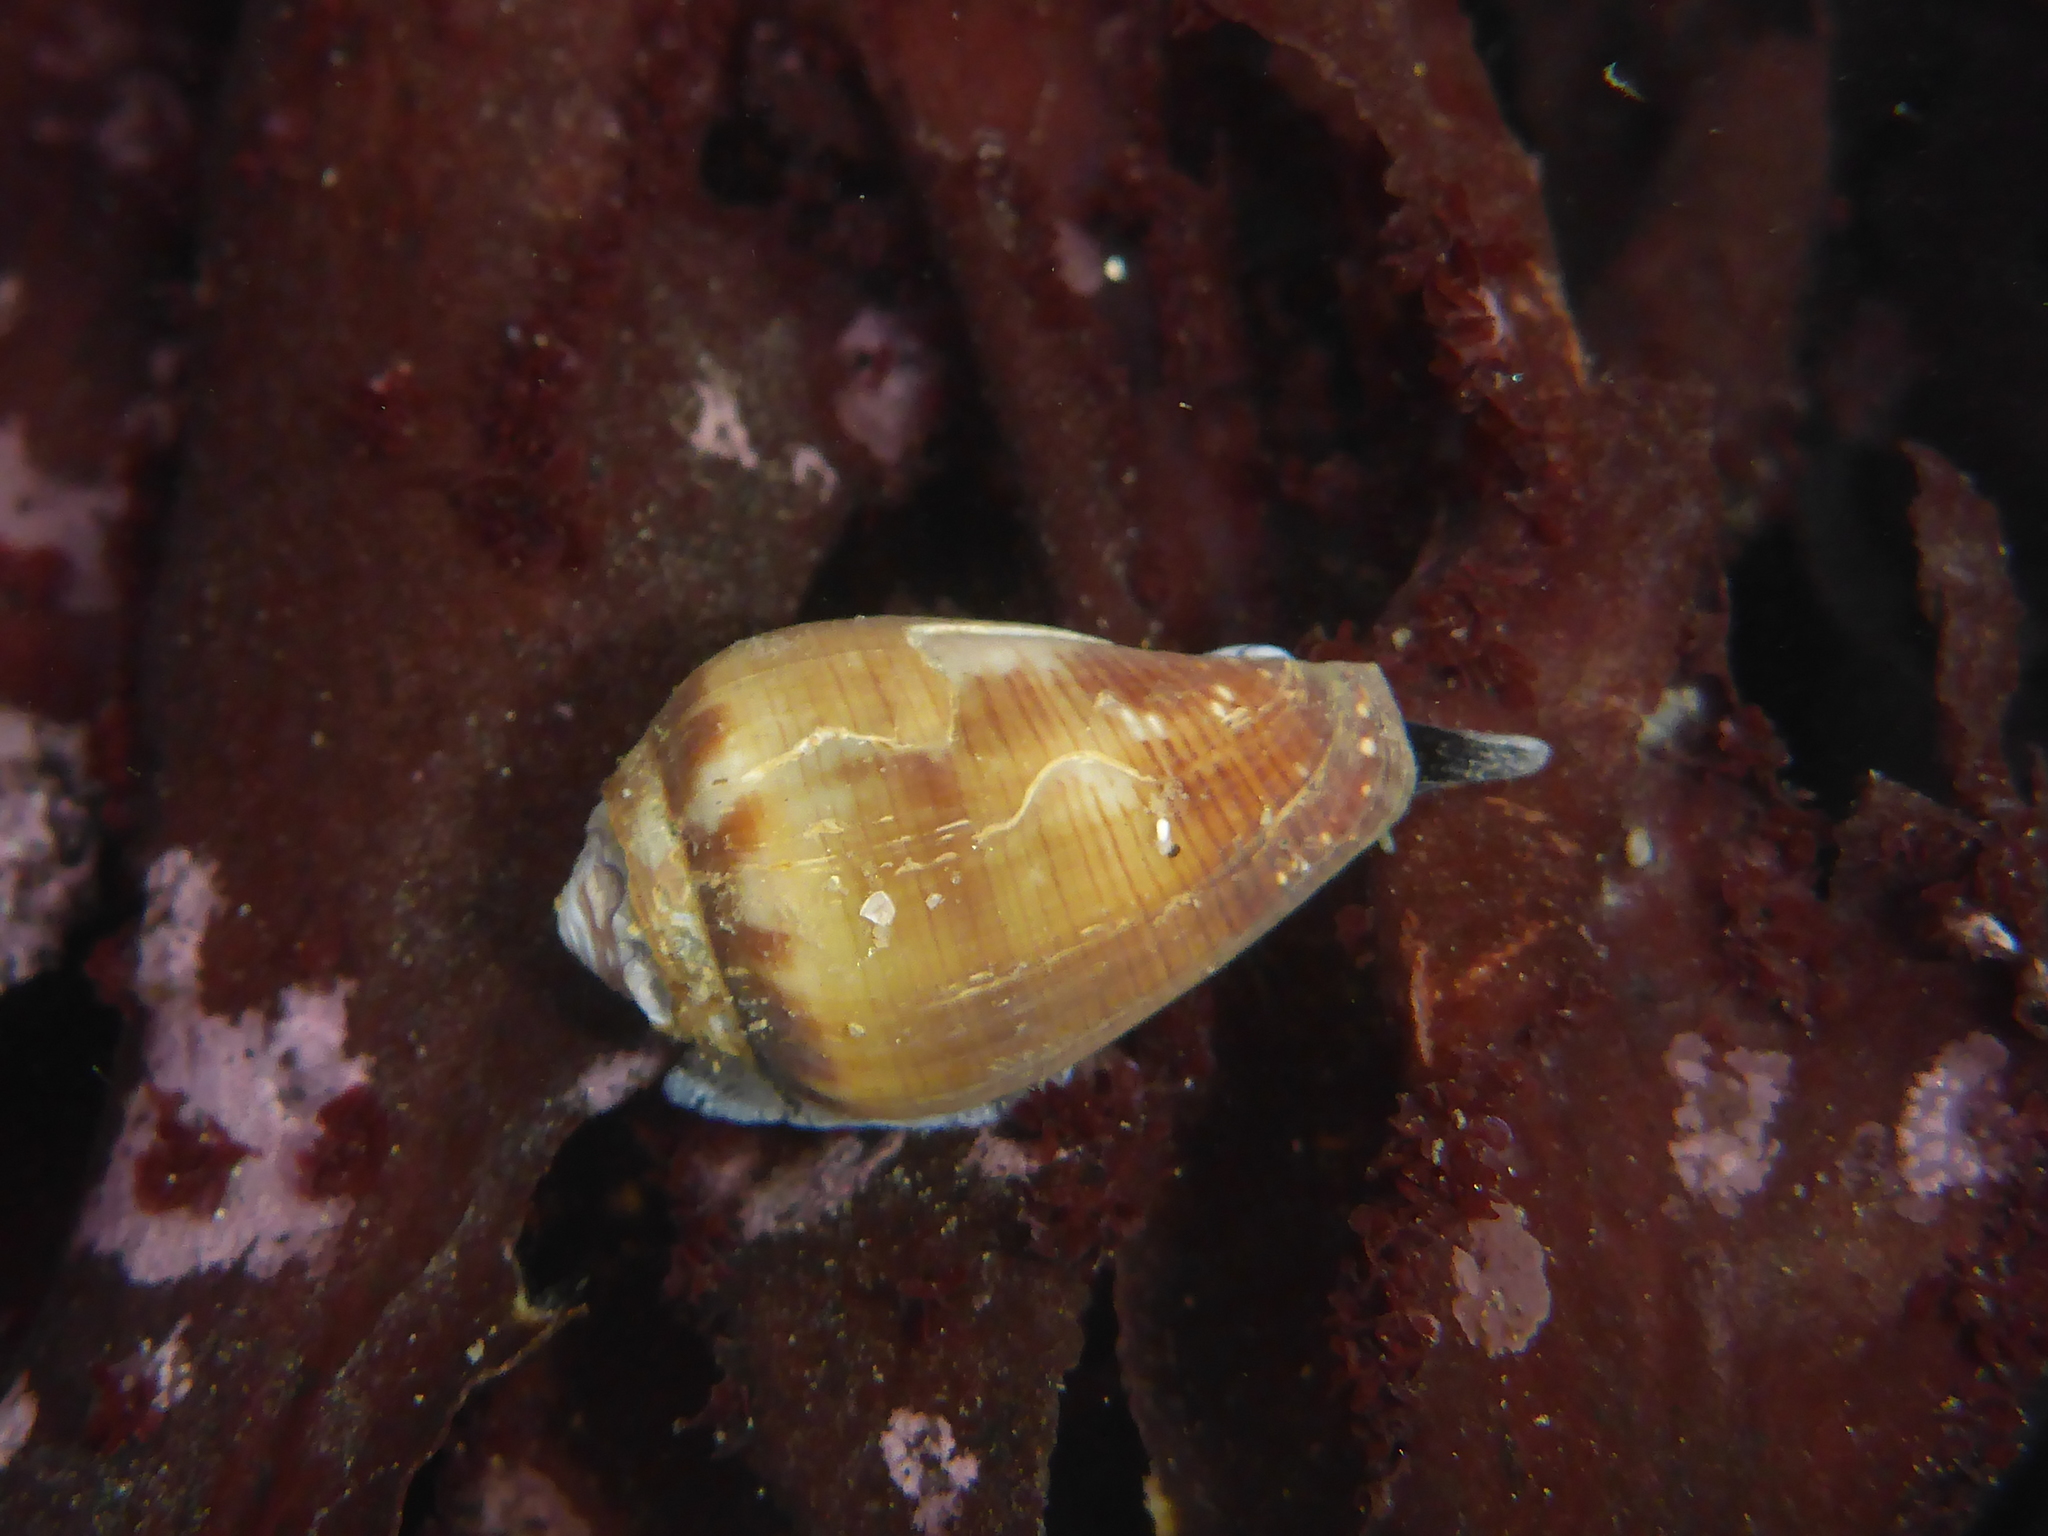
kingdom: Animalia
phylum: Mollusca
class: Gastropoda
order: Neogastropoda
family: Conidae
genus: Californiconus
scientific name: Californiconus californicus
